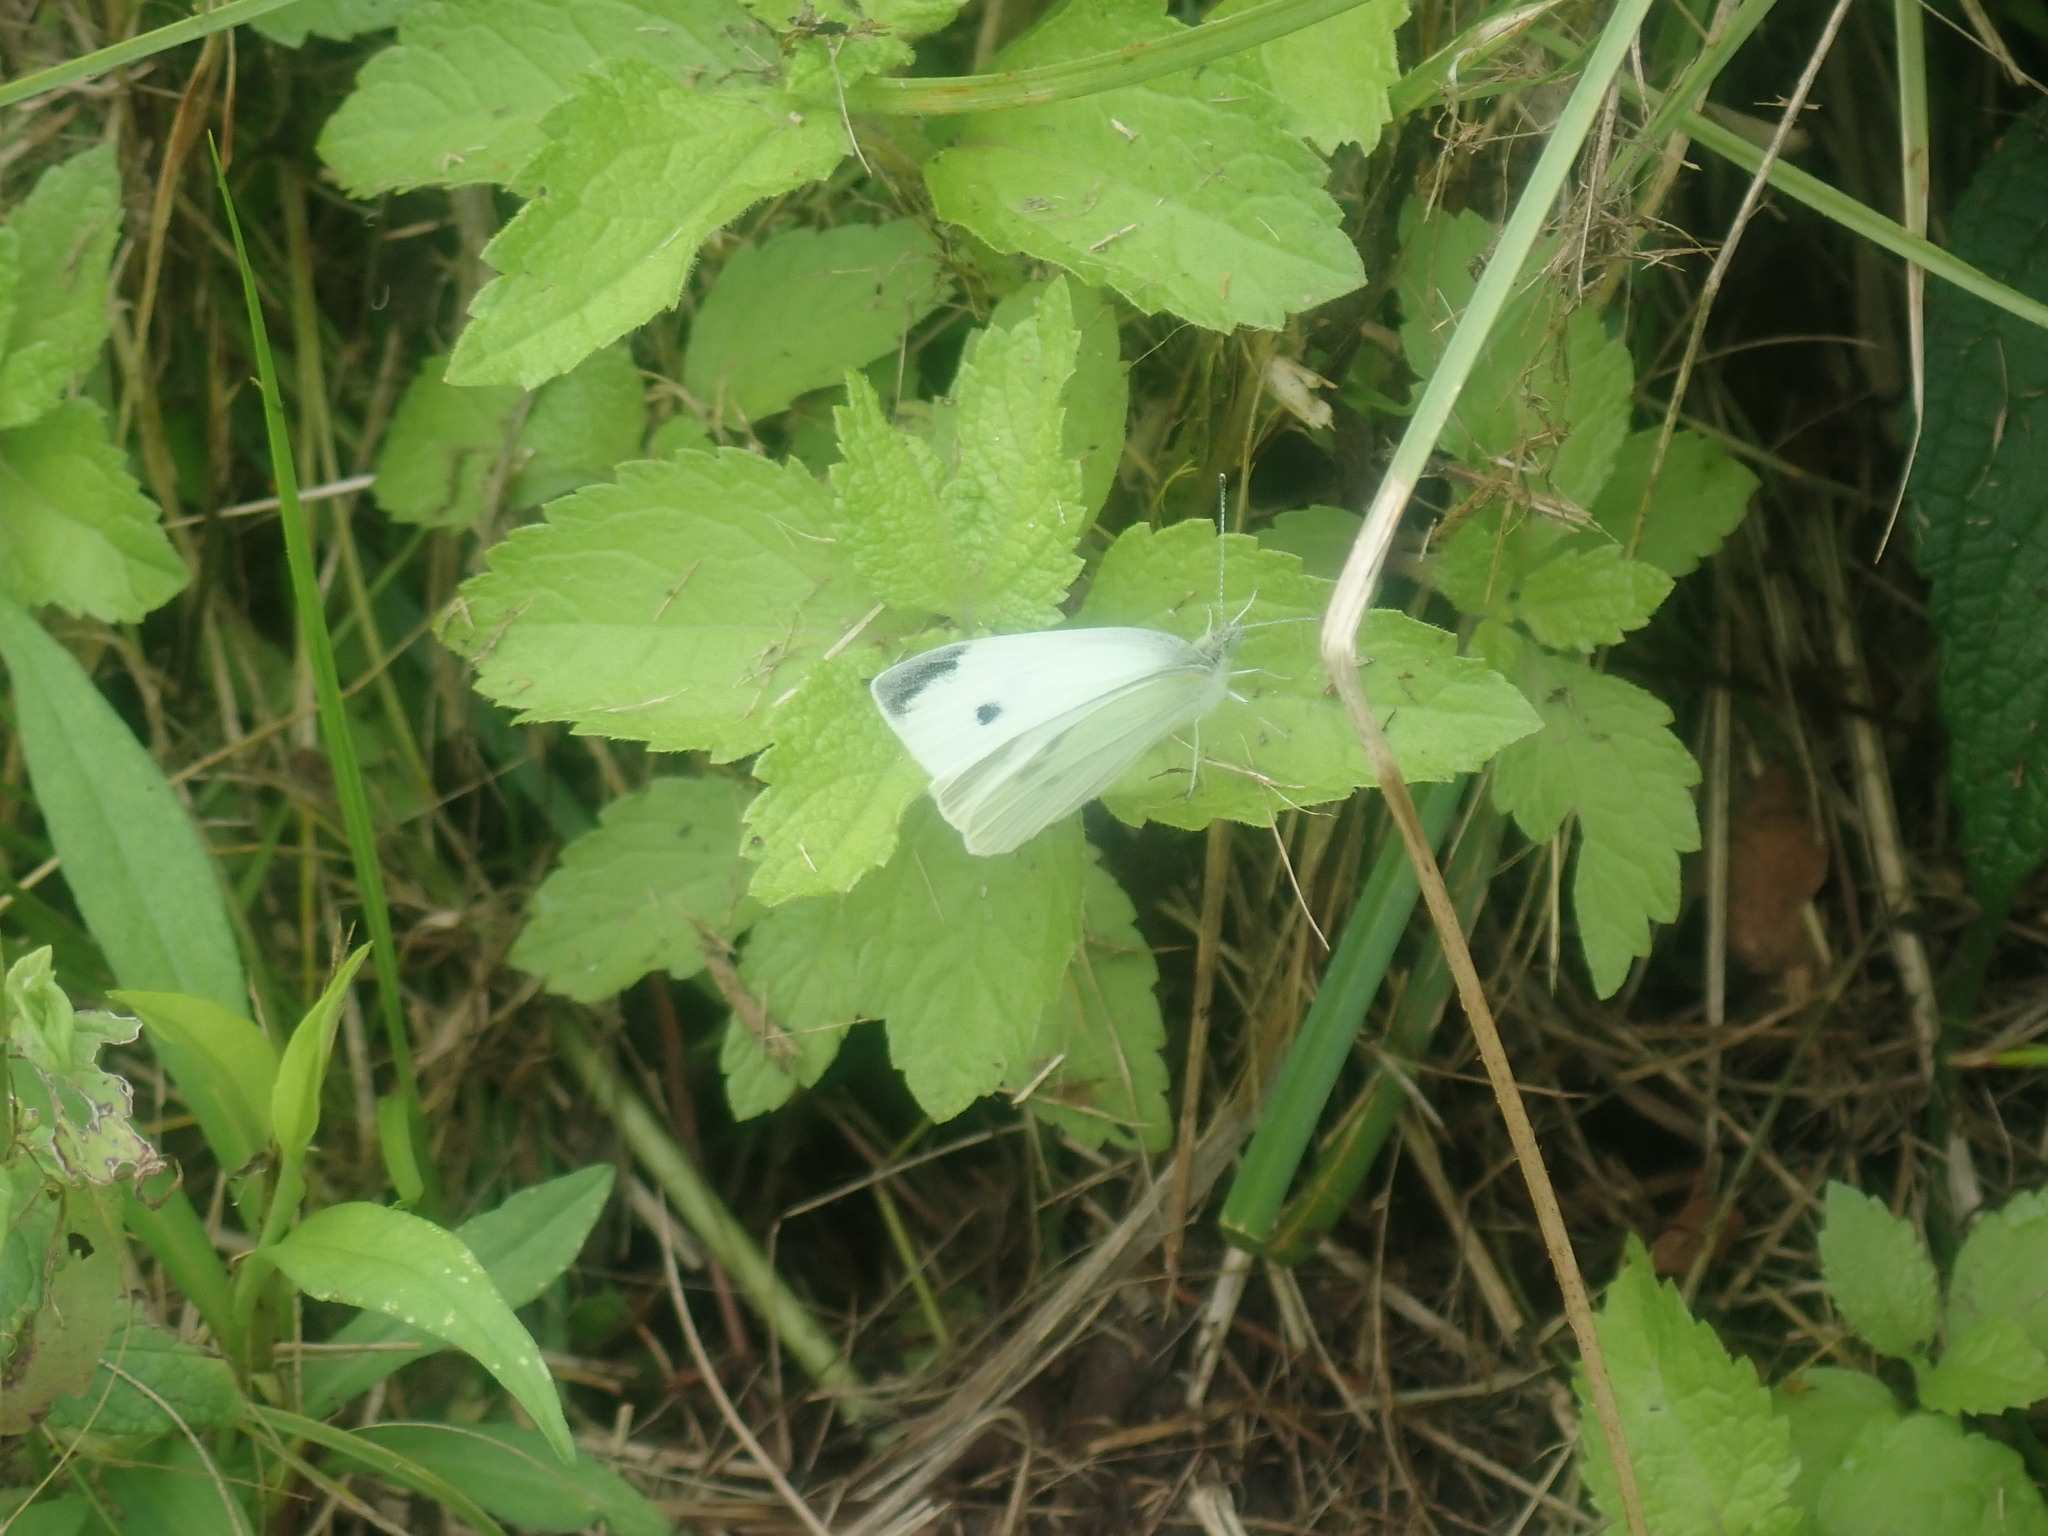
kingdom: Animalia
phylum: Arthropoda
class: Insecta
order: Lepidoptera
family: Pieridae
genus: Pieris
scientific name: Pieris rapae
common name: Small white
